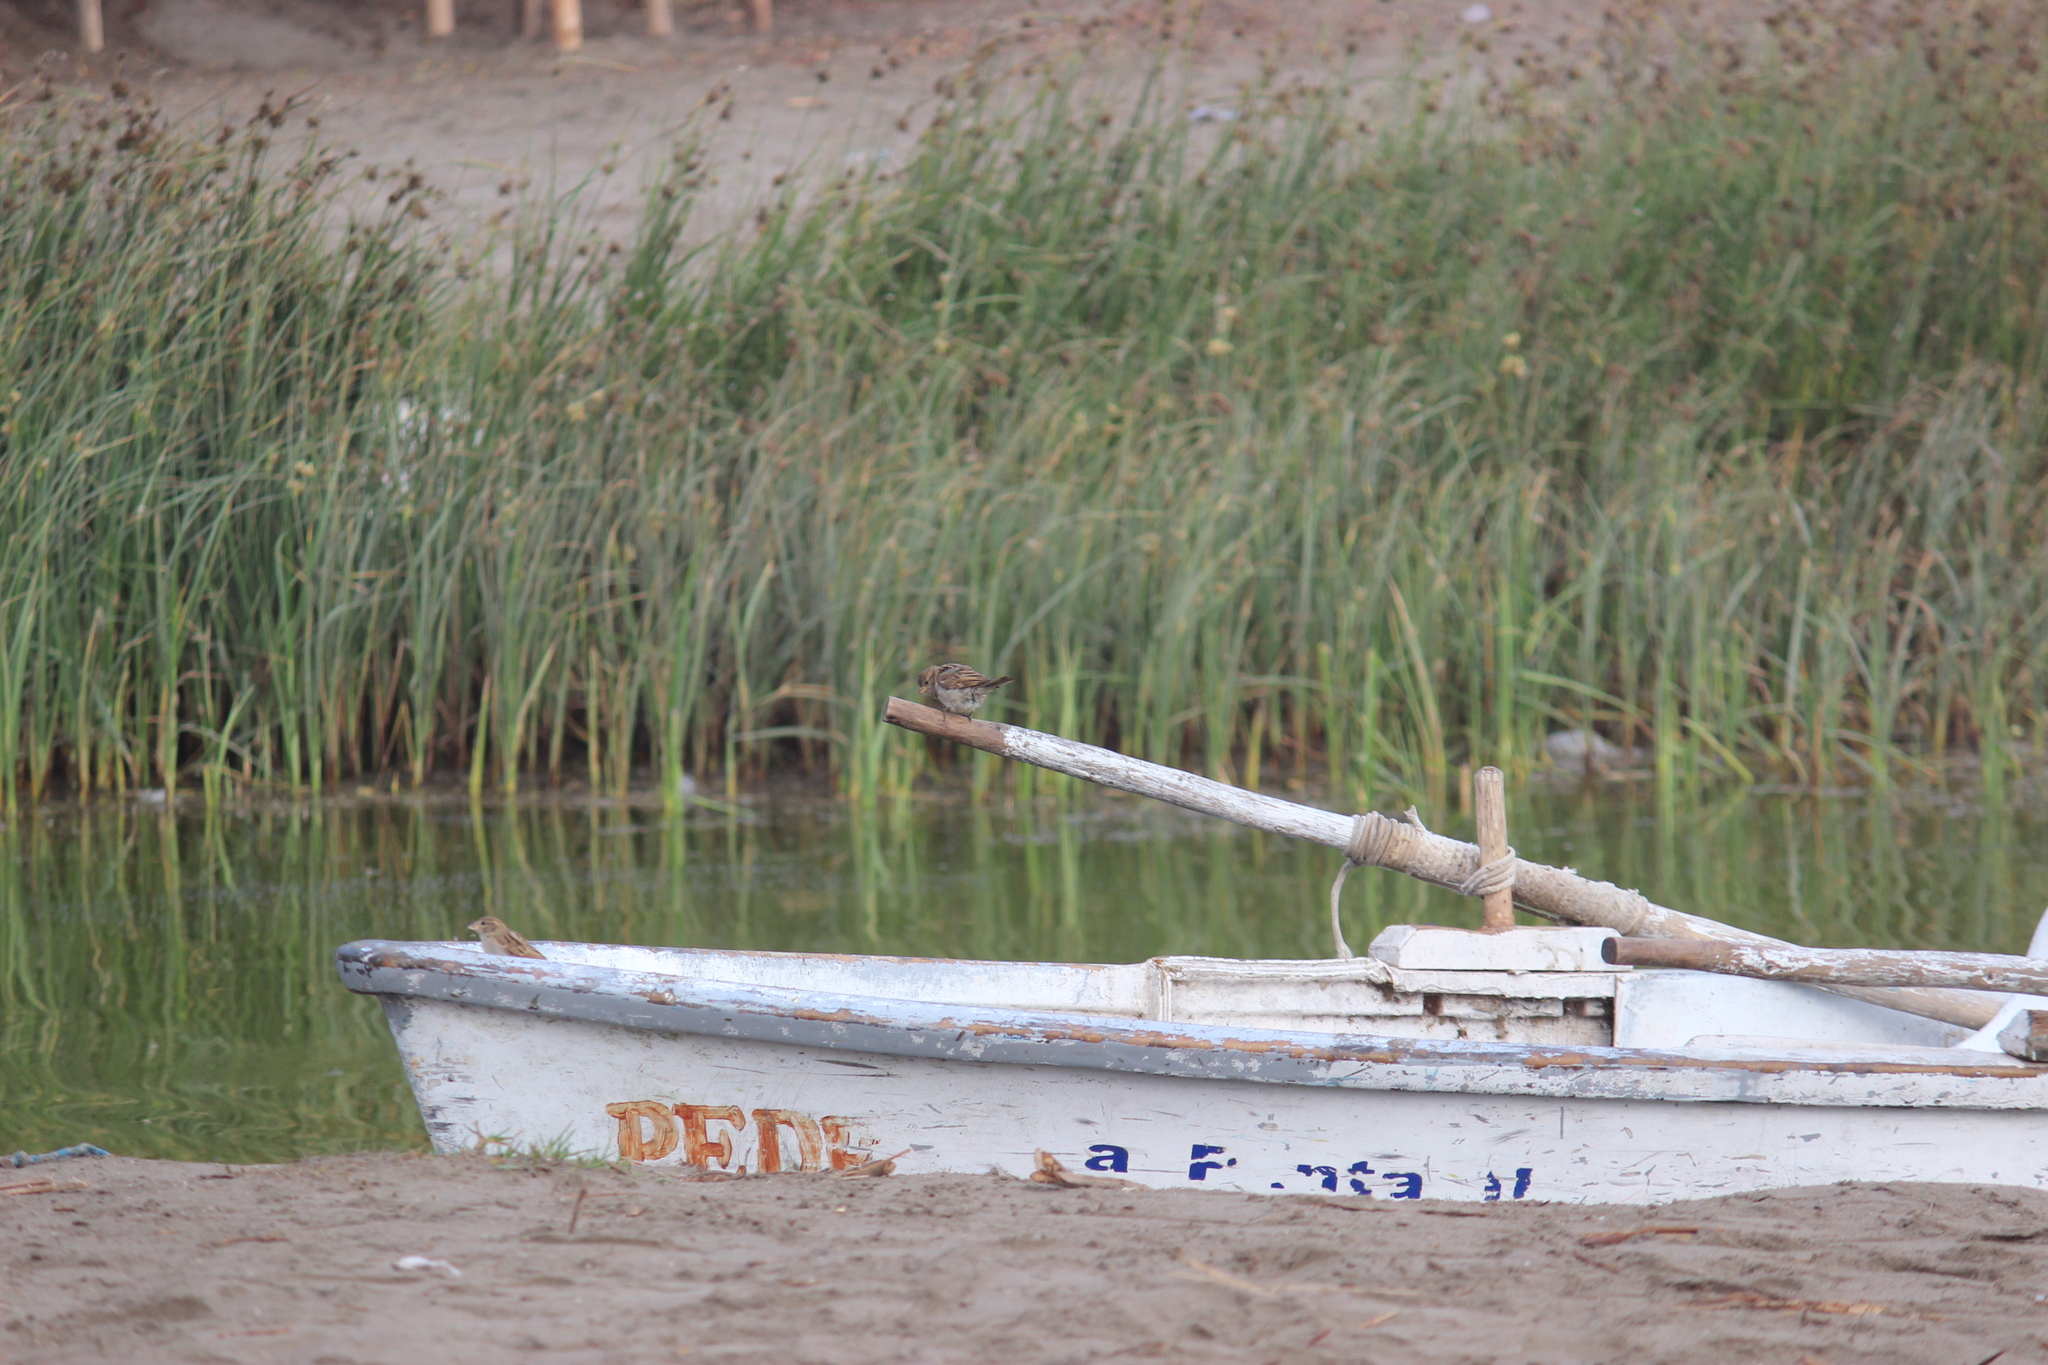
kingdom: Animalia
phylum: Chordata
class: Aves
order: Passeriformes
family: Passeridae
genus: Passer
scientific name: Passer domesticus
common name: House sparrow
